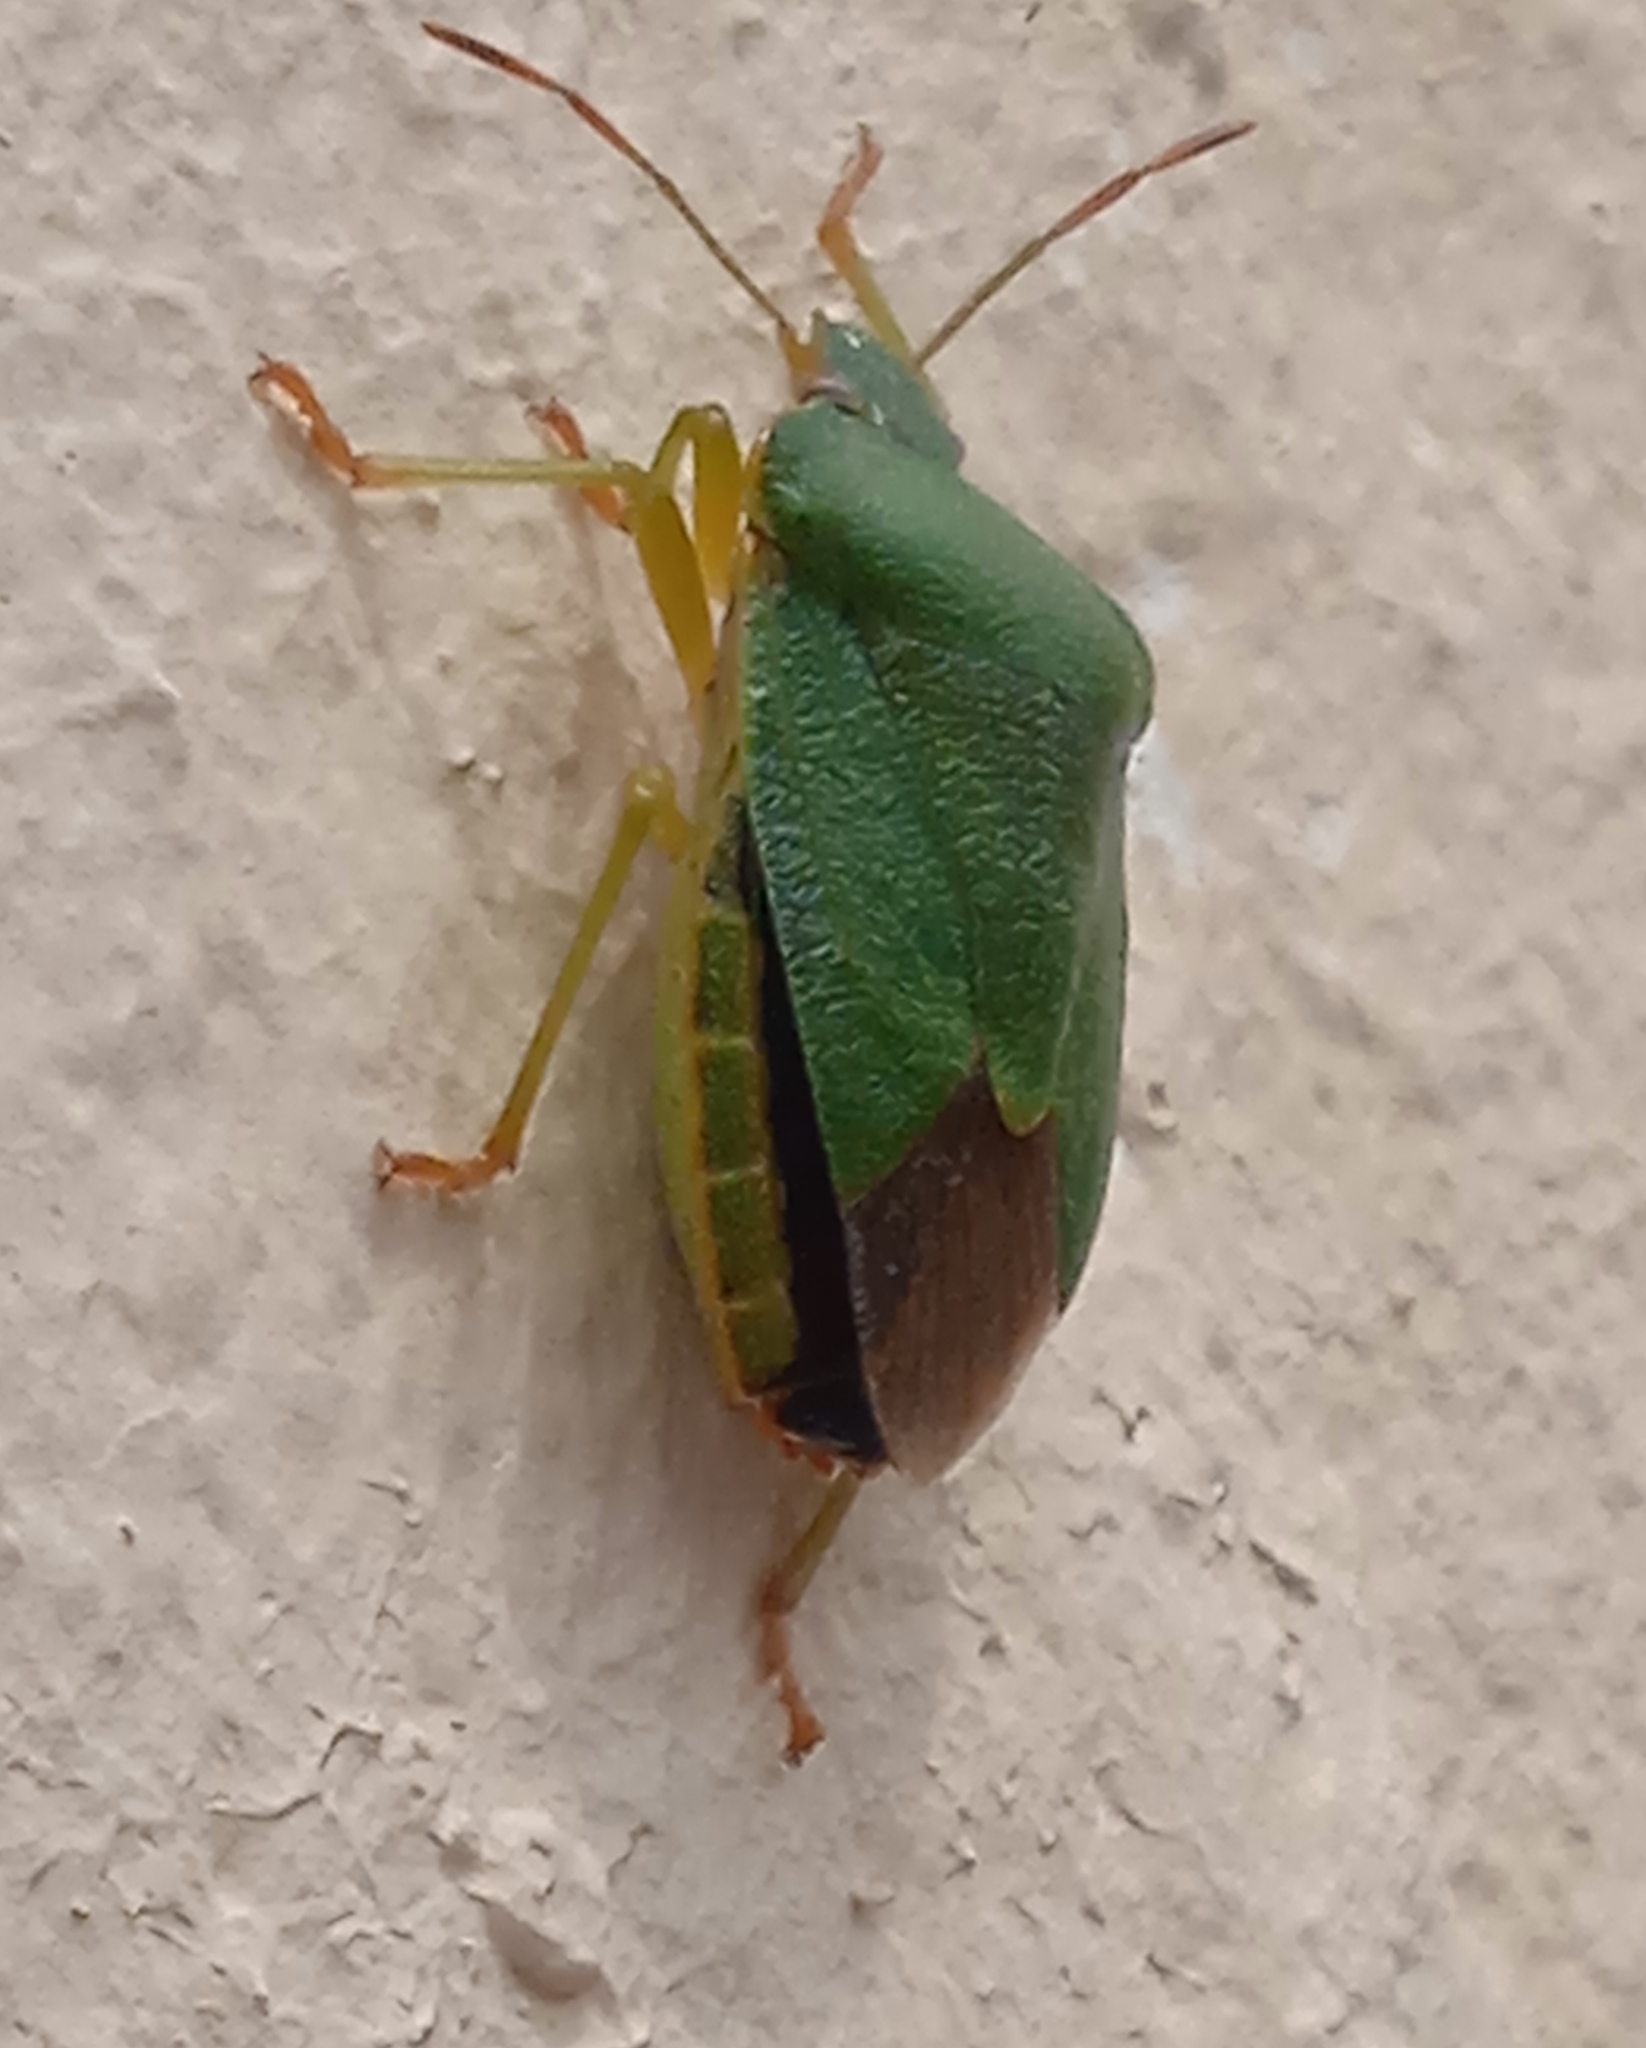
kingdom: Animalia
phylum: Arthropoda
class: Insecta
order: Hemiptera
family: Pentatomidae
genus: Palomena
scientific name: Palomena prasina
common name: Green shieldbug
